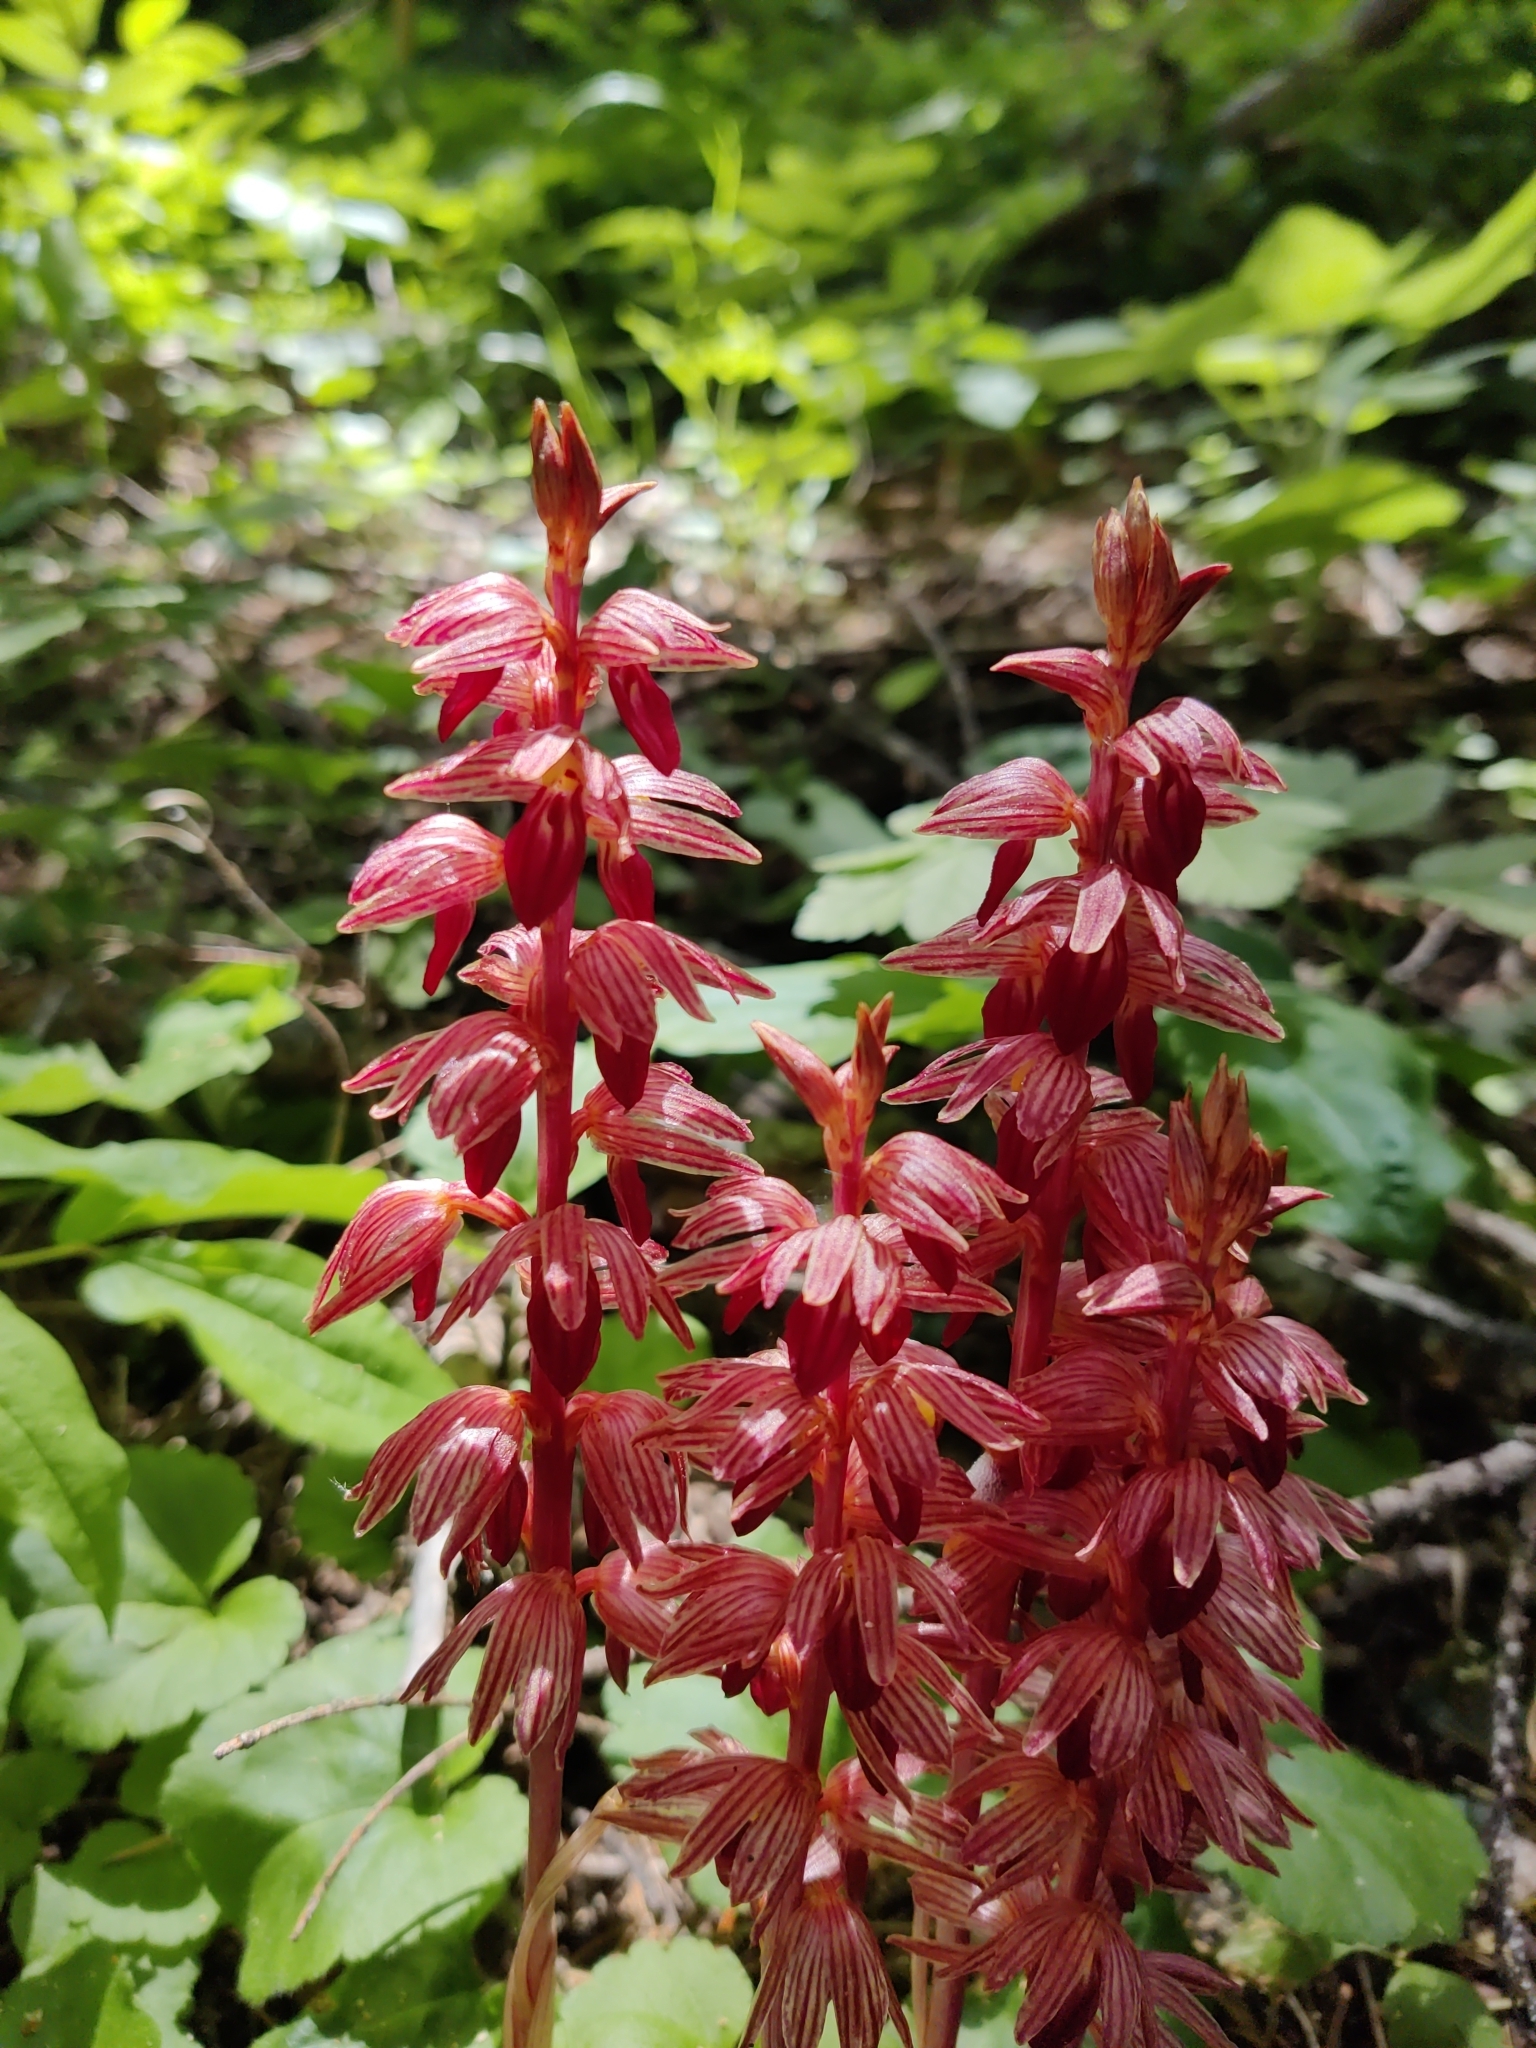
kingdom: Plantae
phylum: Tracheophyta
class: Liliopsida
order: Asparagales
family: Orchidaceae
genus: Corallorhiza
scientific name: Corallorhiza striata
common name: Hooded coralroot
